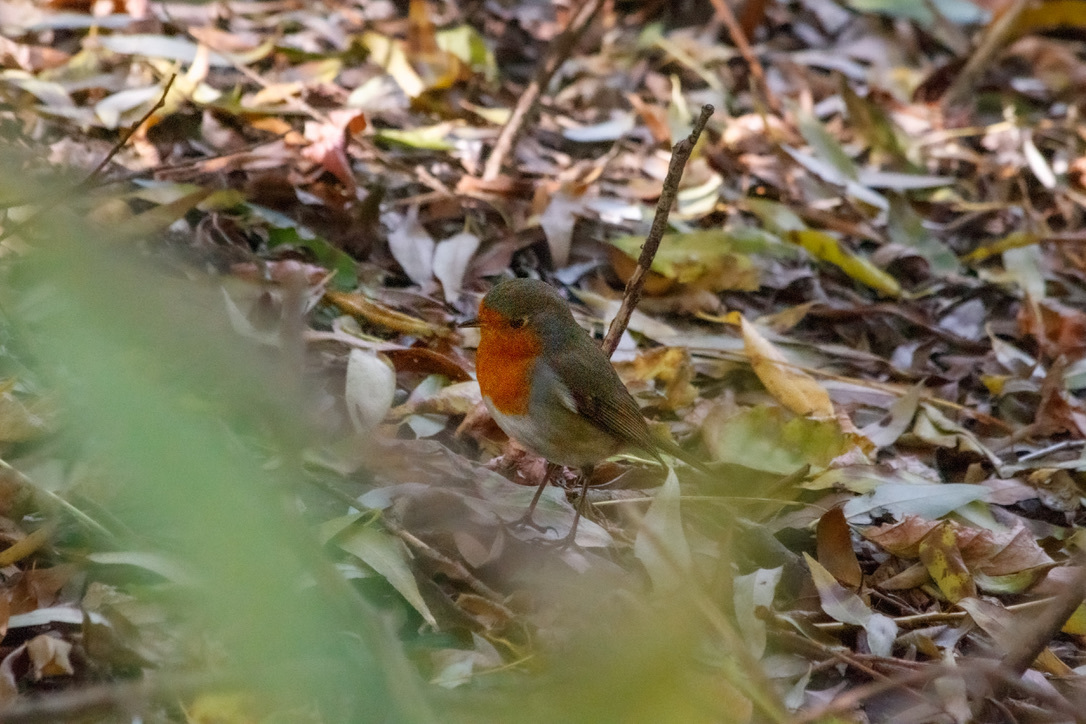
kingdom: Animalia
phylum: Chordata
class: Aves
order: Passeriformes
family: Muscicapidae
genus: Erithacus
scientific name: Erithacus rubecula
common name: European robin
